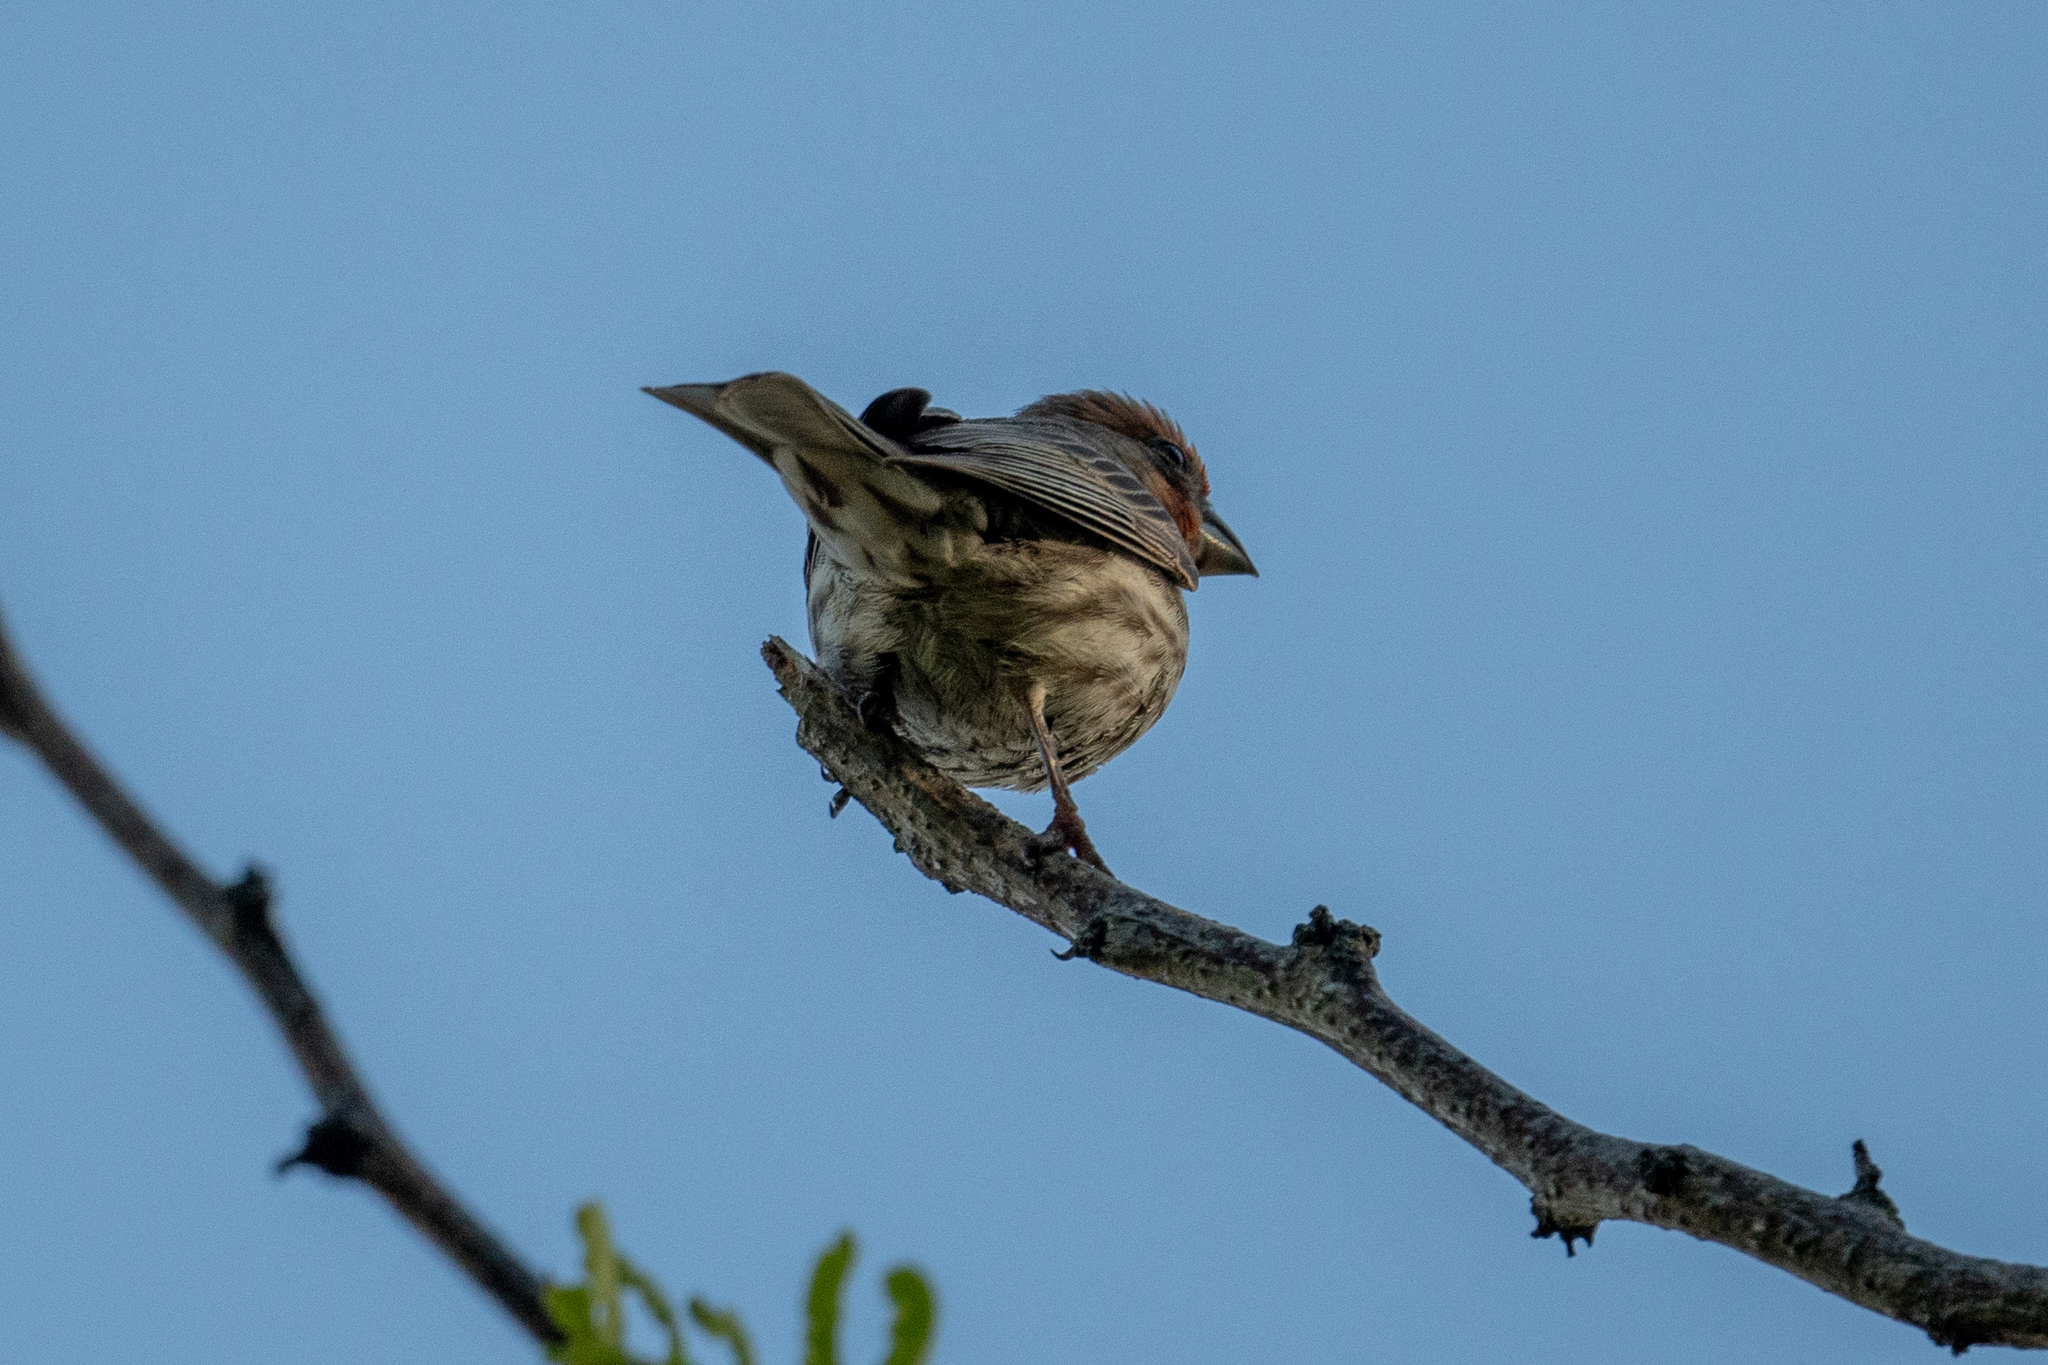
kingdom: Animalia
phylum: Chordata
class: Aves
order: Passeriformes
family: Fringillidae
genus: Haemorhous
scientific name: Haemorhous mexicanus
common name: House finch
